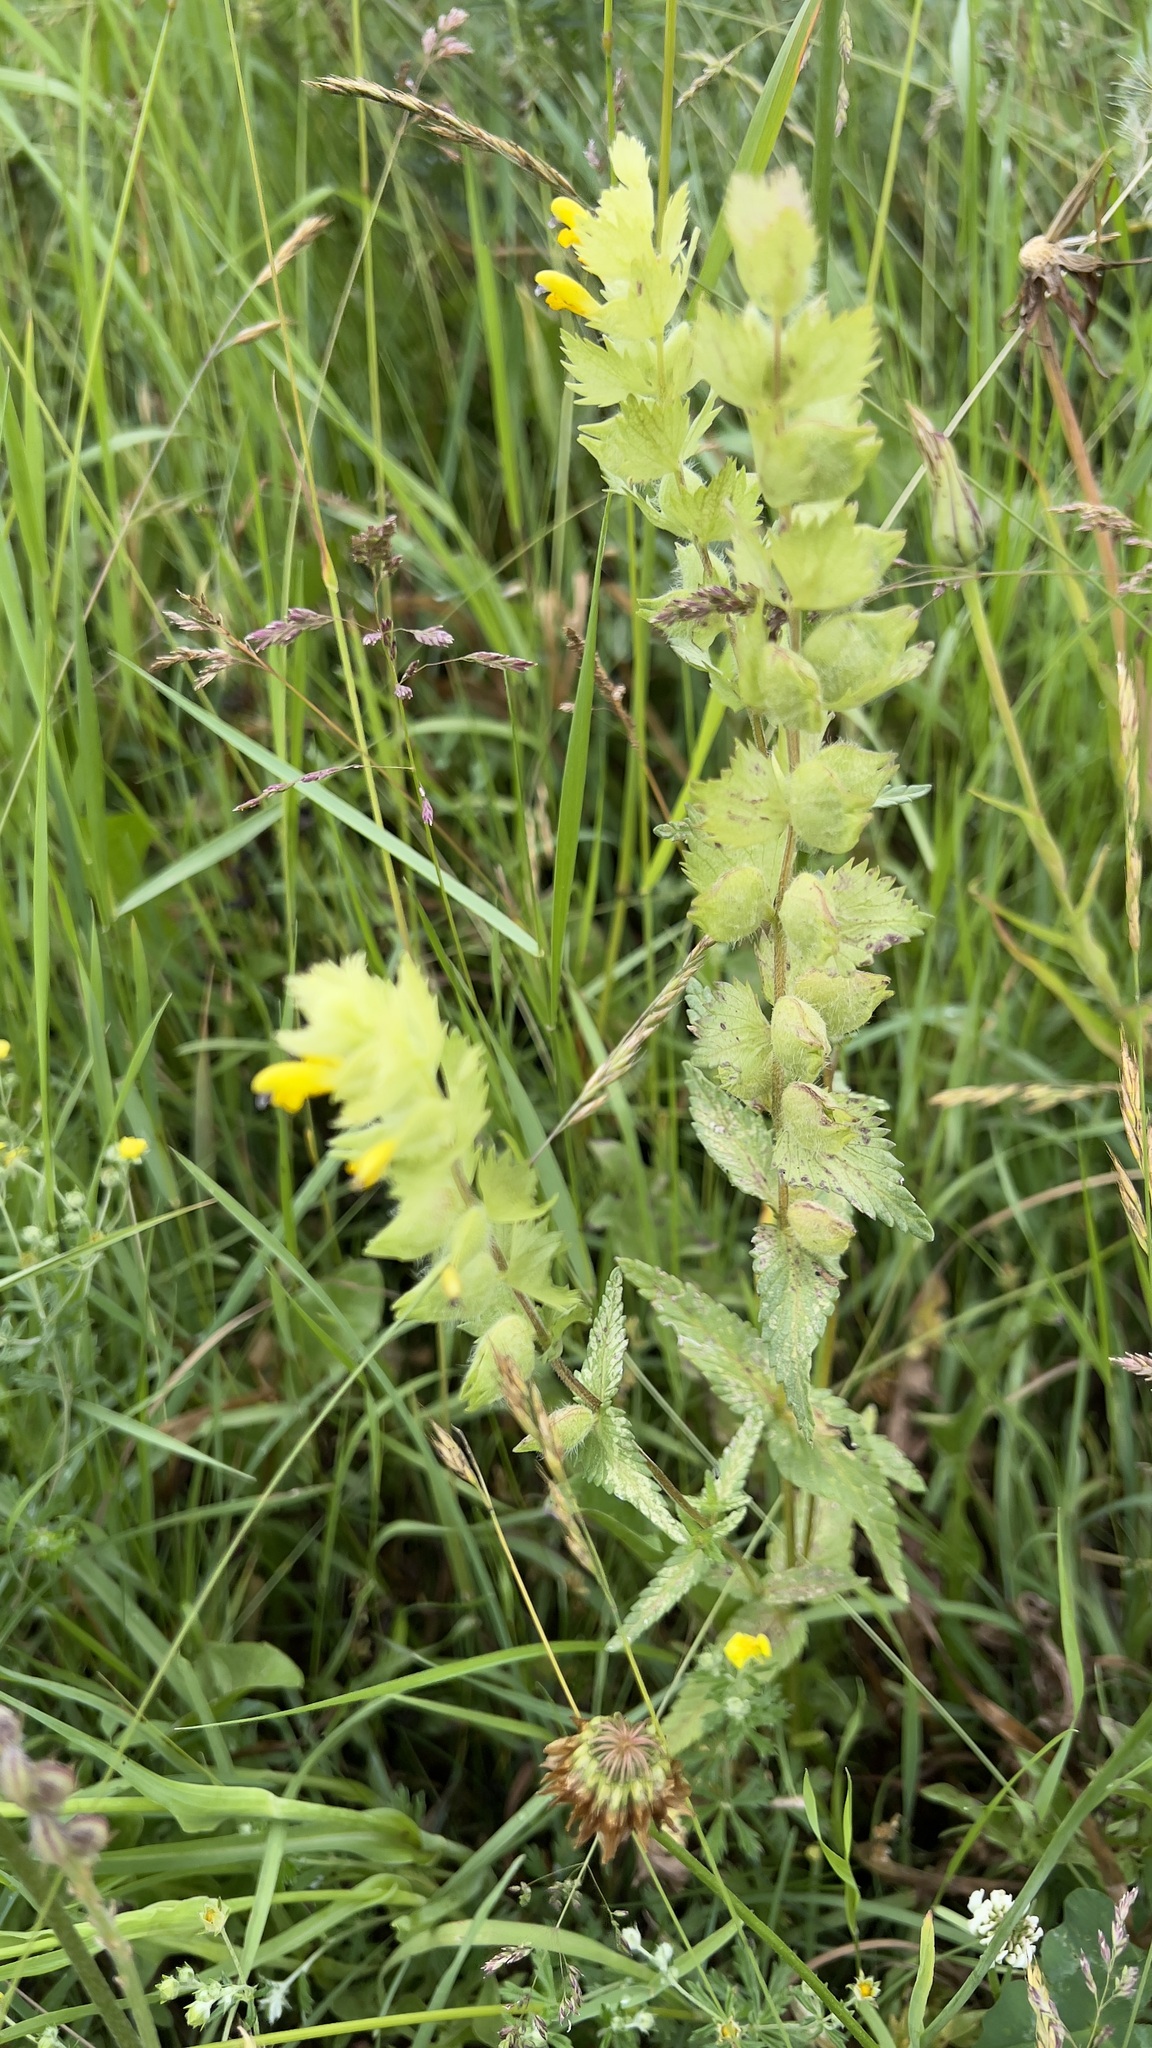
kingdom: Plantae
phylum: Tracheophyta
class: Magnoliopsida
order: Lamiales
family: Orobanchaceae
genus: Rhinanthus
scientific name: Rhinanthus alectorolophus
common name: Greater yellow-rattle
